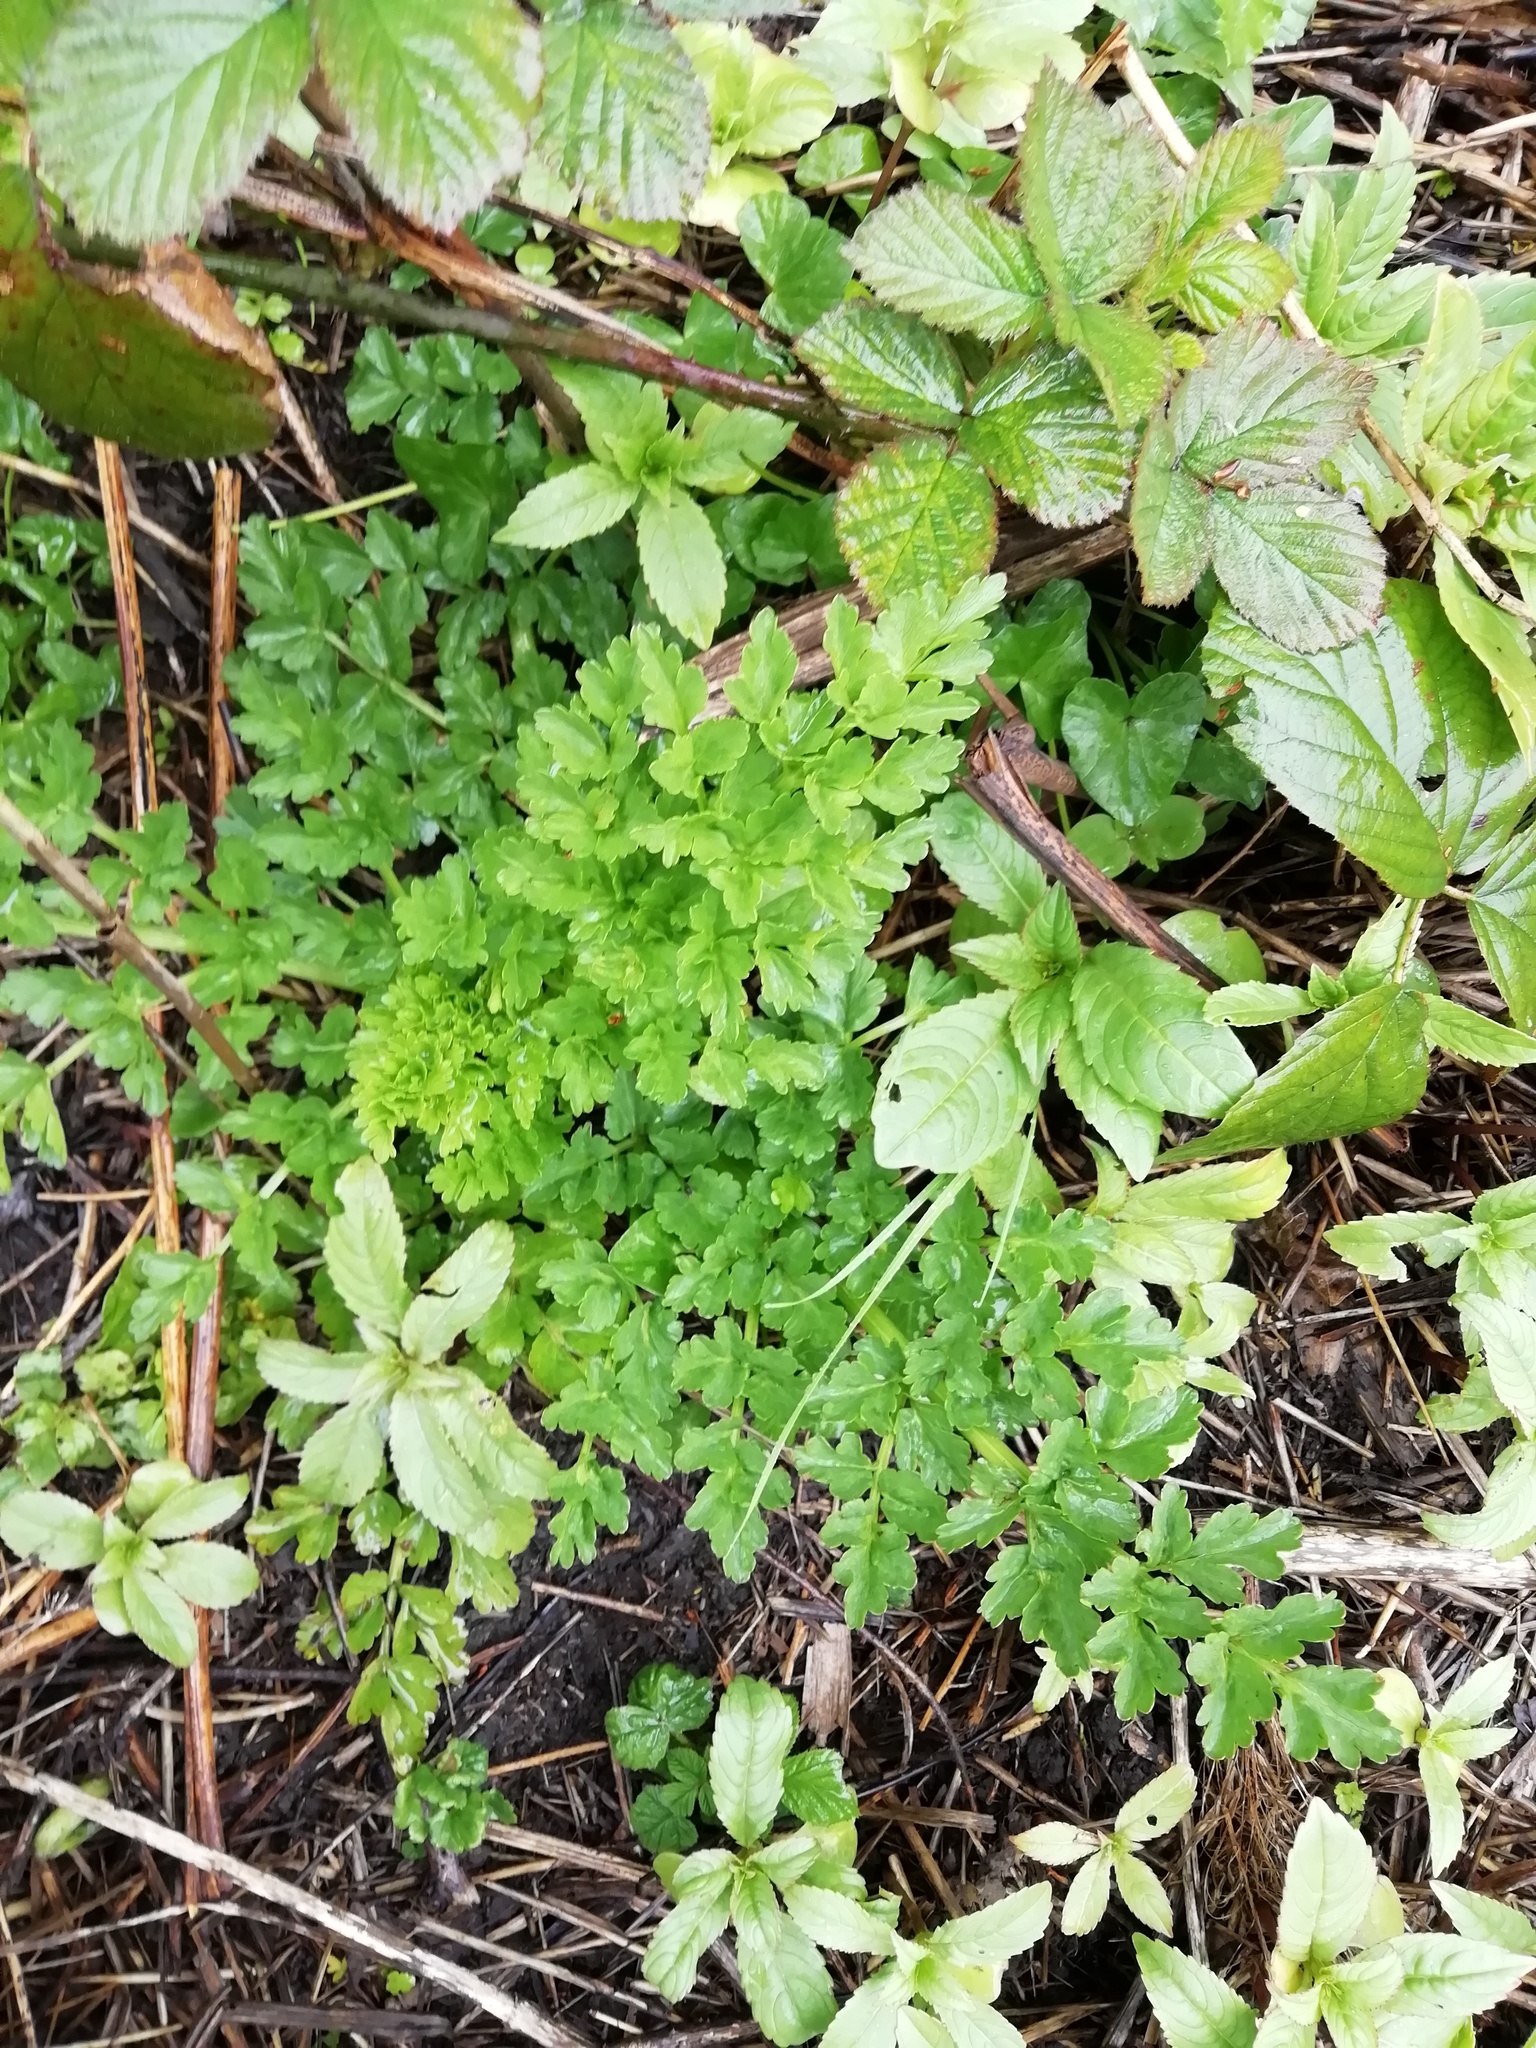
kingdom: Plantae
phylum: Tracheophyta
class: Magnoliopsida
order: Apiales
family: Apiaceae
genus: Oenanthe
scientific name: Oenanthe crocata
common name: Hemlock water-dropwort
